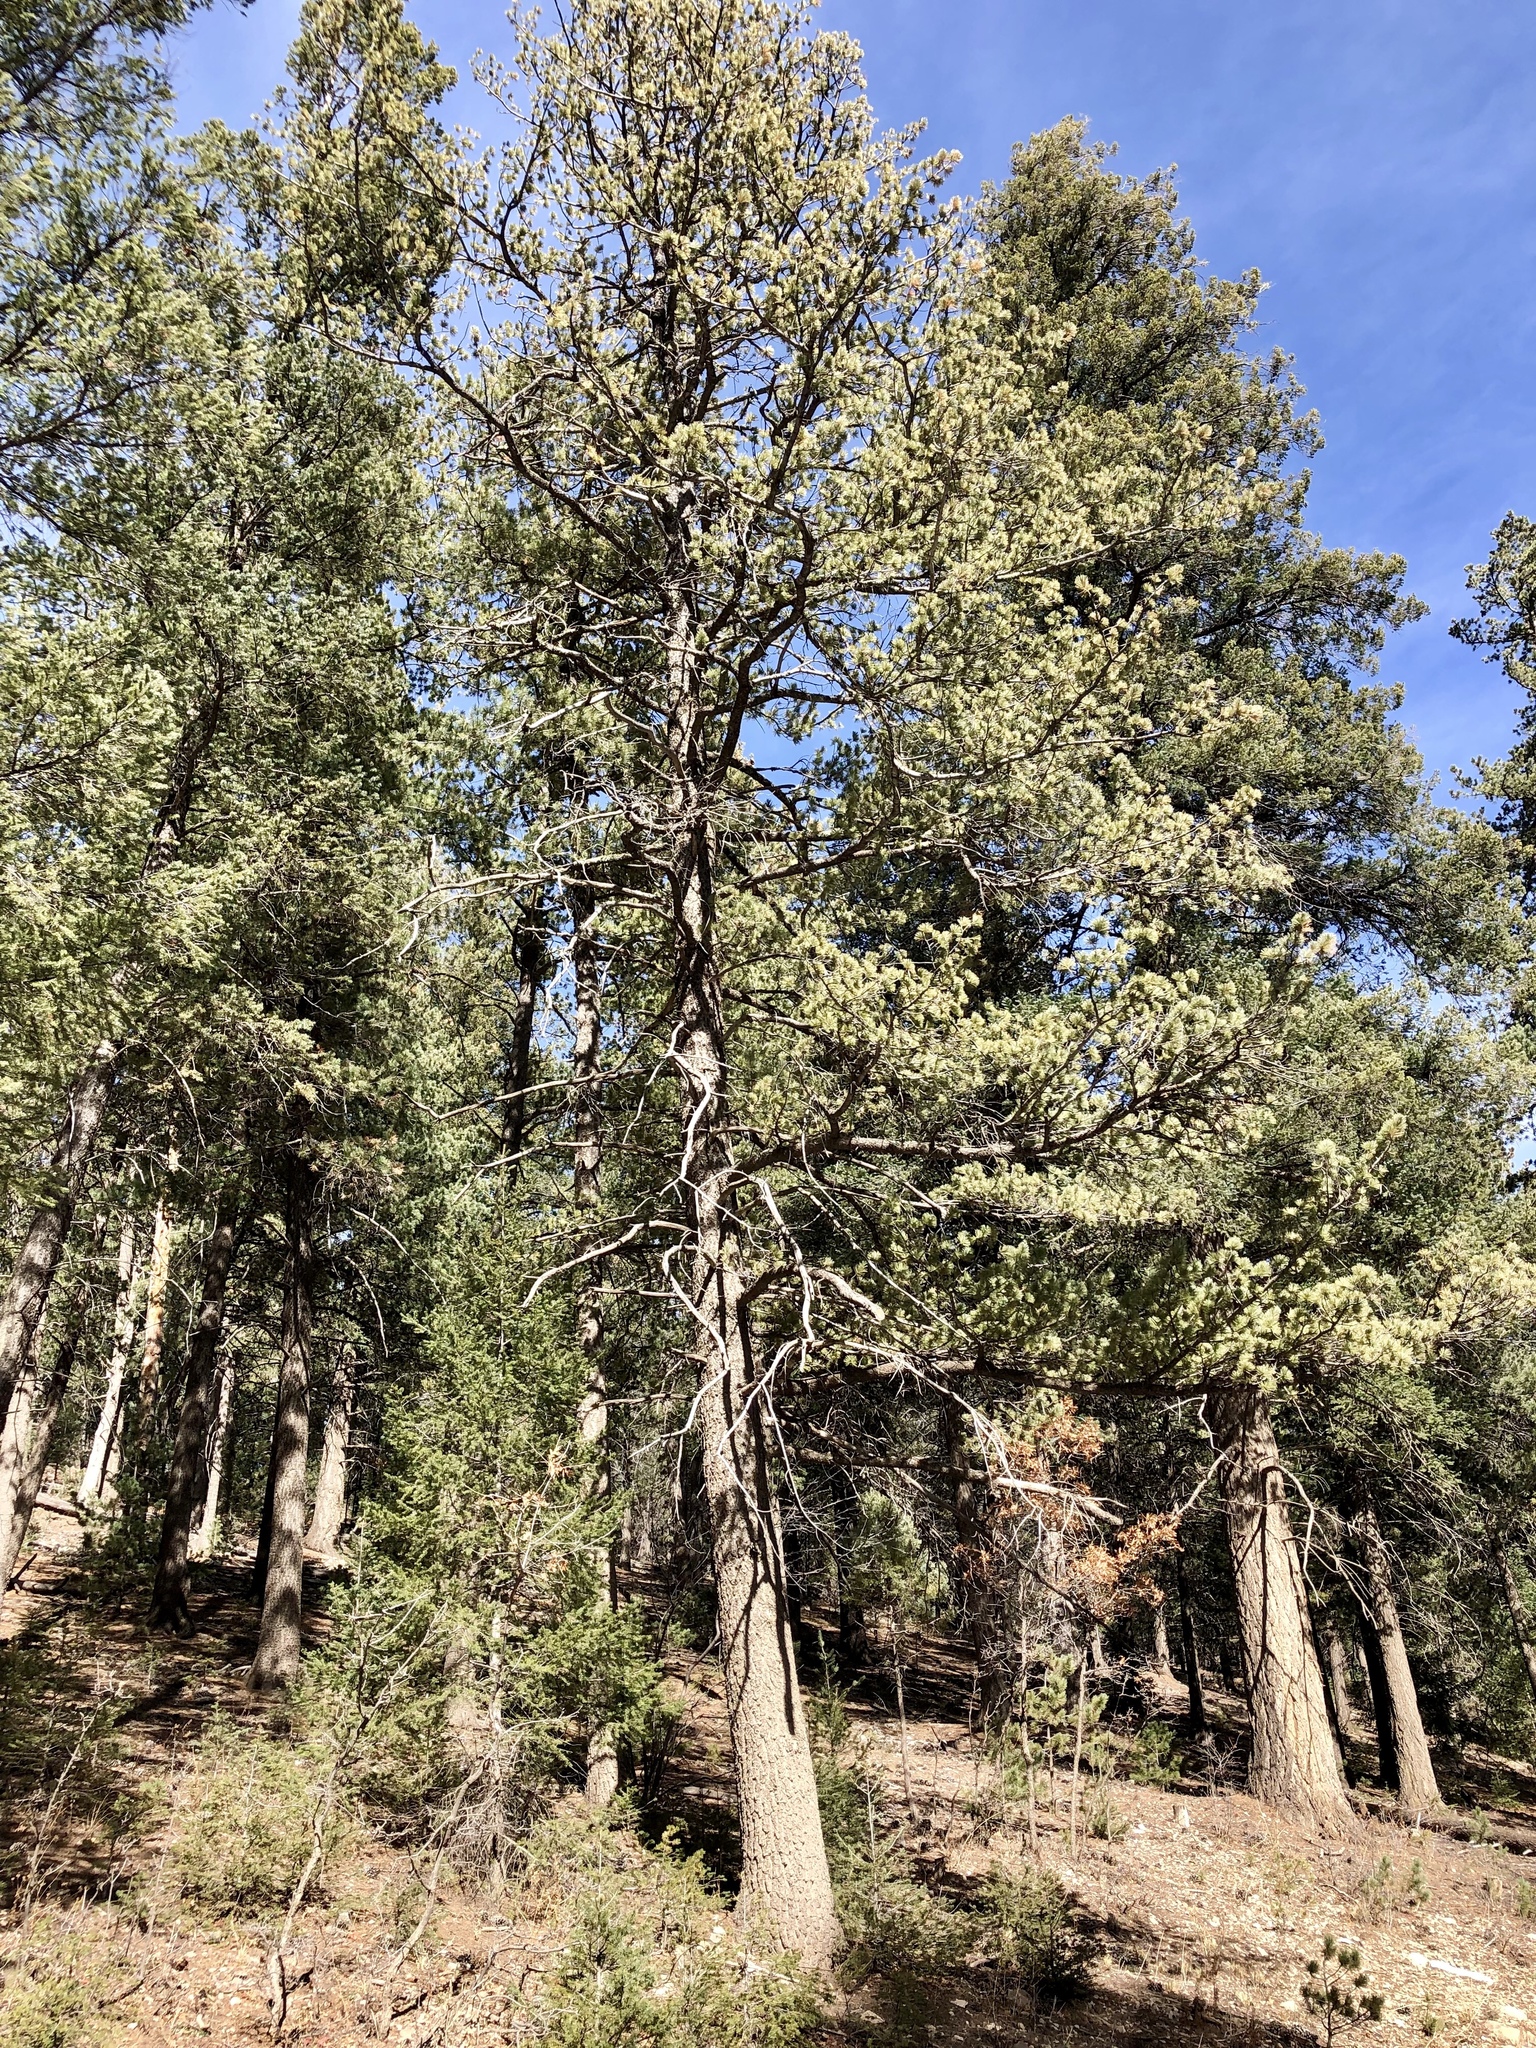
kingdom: Plantae
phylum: Tracheophyta
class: Pinopsida
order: Pinales
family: Pinaceae
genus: Pinus
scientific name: Pinus strobiformis
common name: Southwestern white pine
